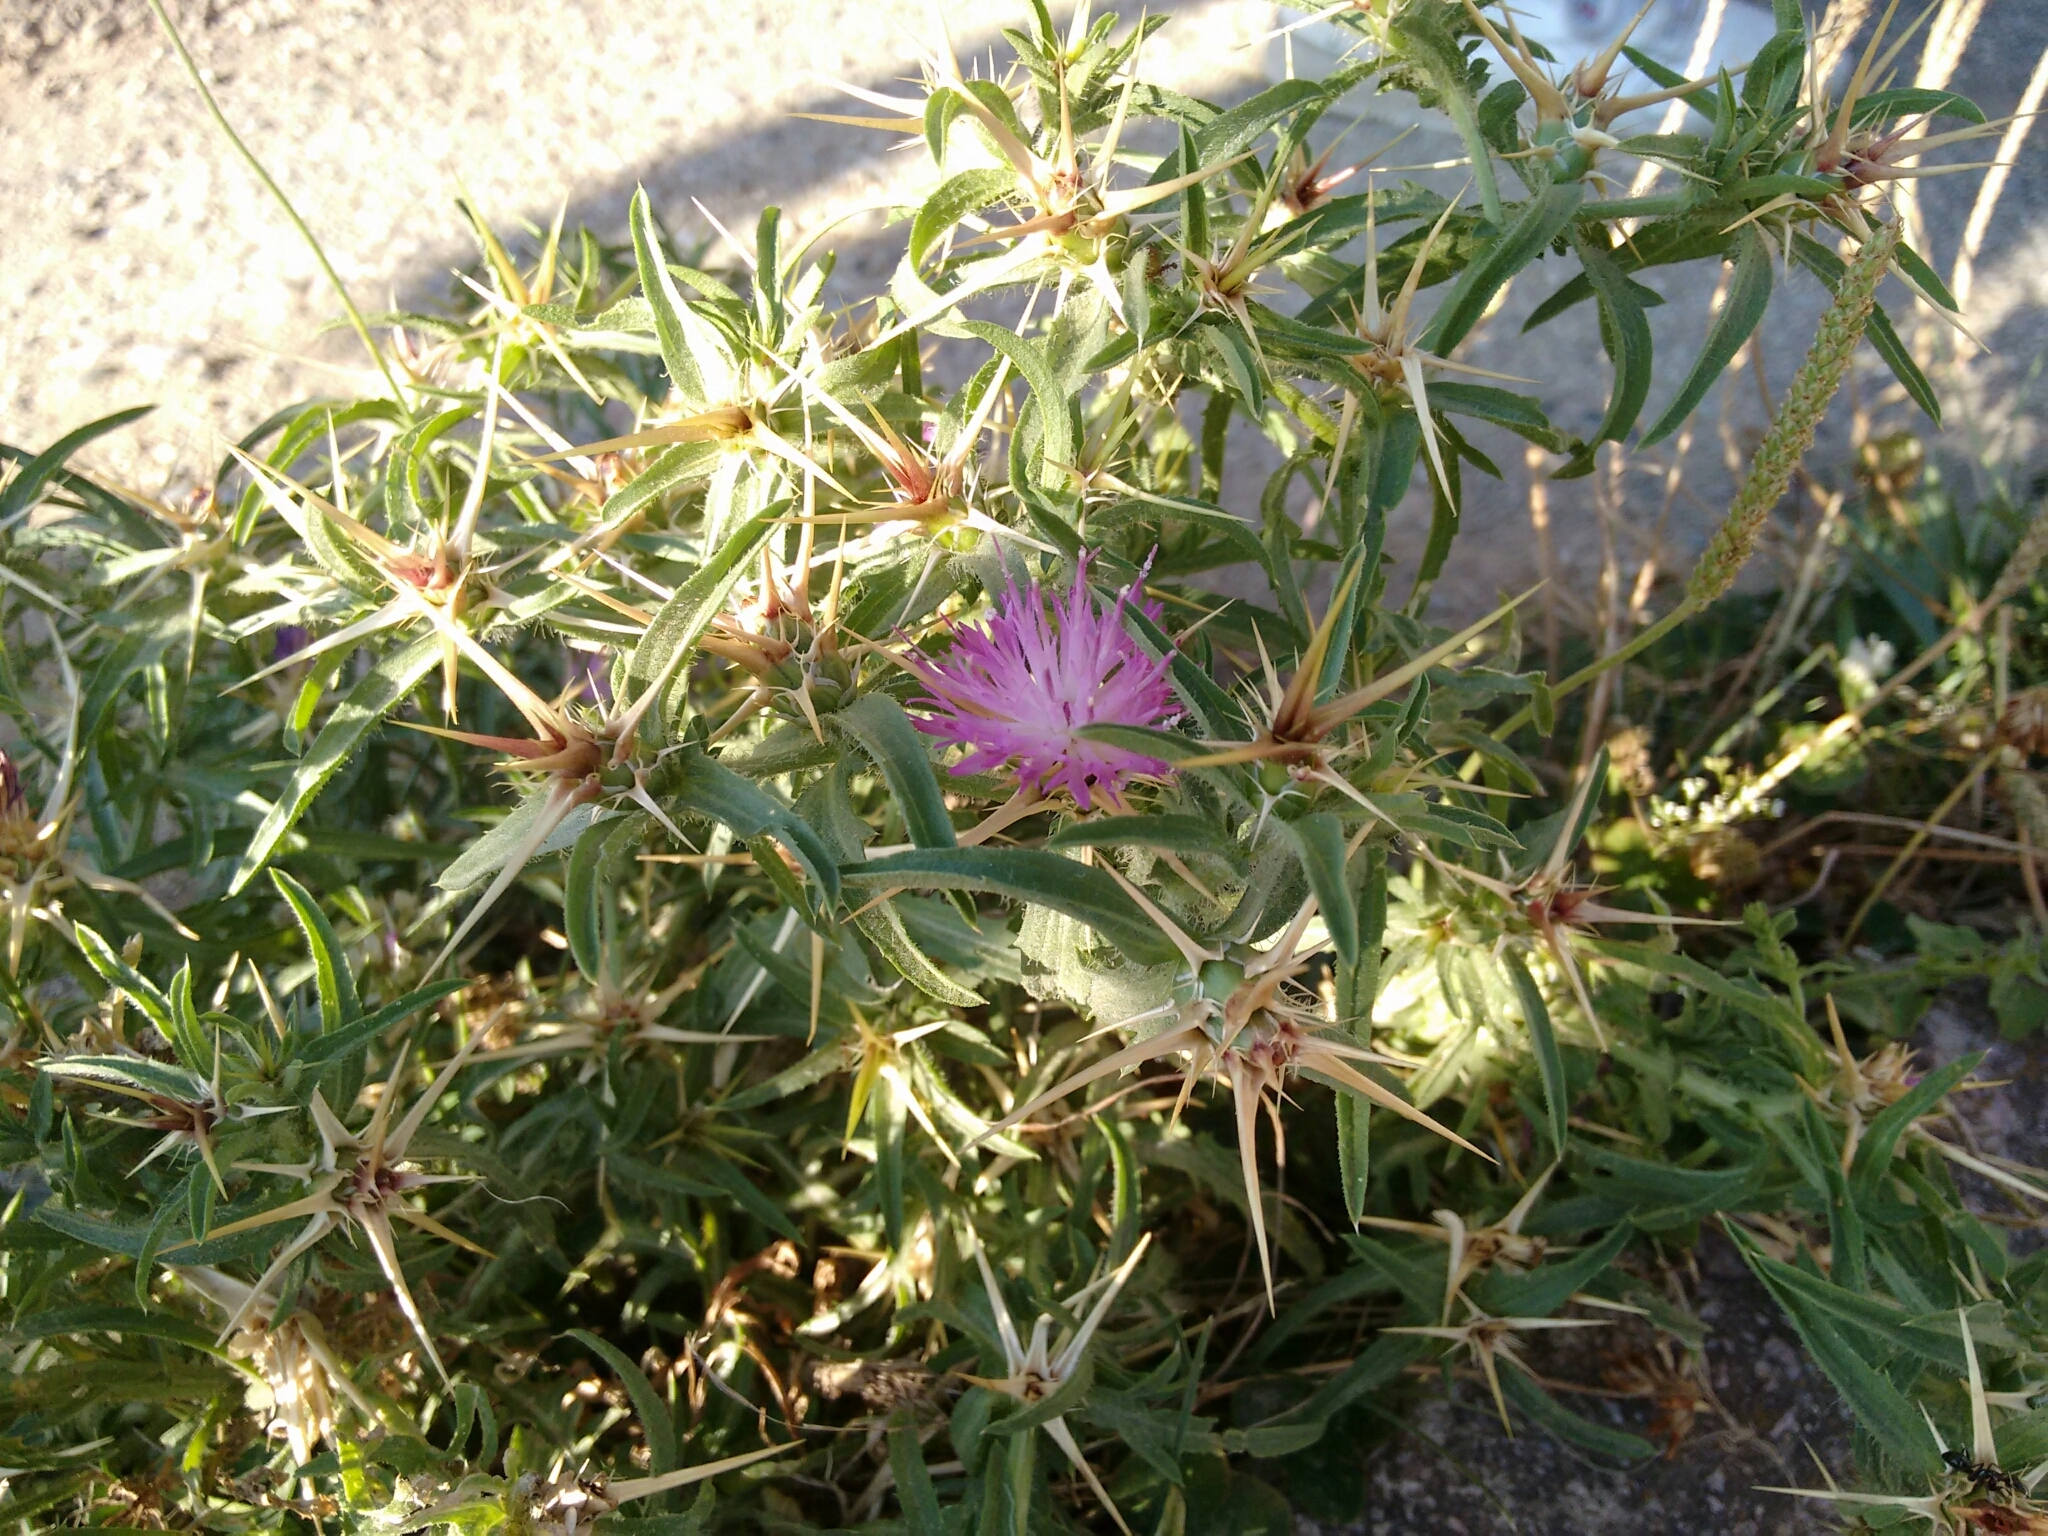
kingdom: Plantae
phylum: Tracheophyta
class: Magnoliopsida
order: Asterales
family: Asteraceae
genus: Centaurea
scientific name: Centaurea calcitrapa
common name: Red star-thistle
